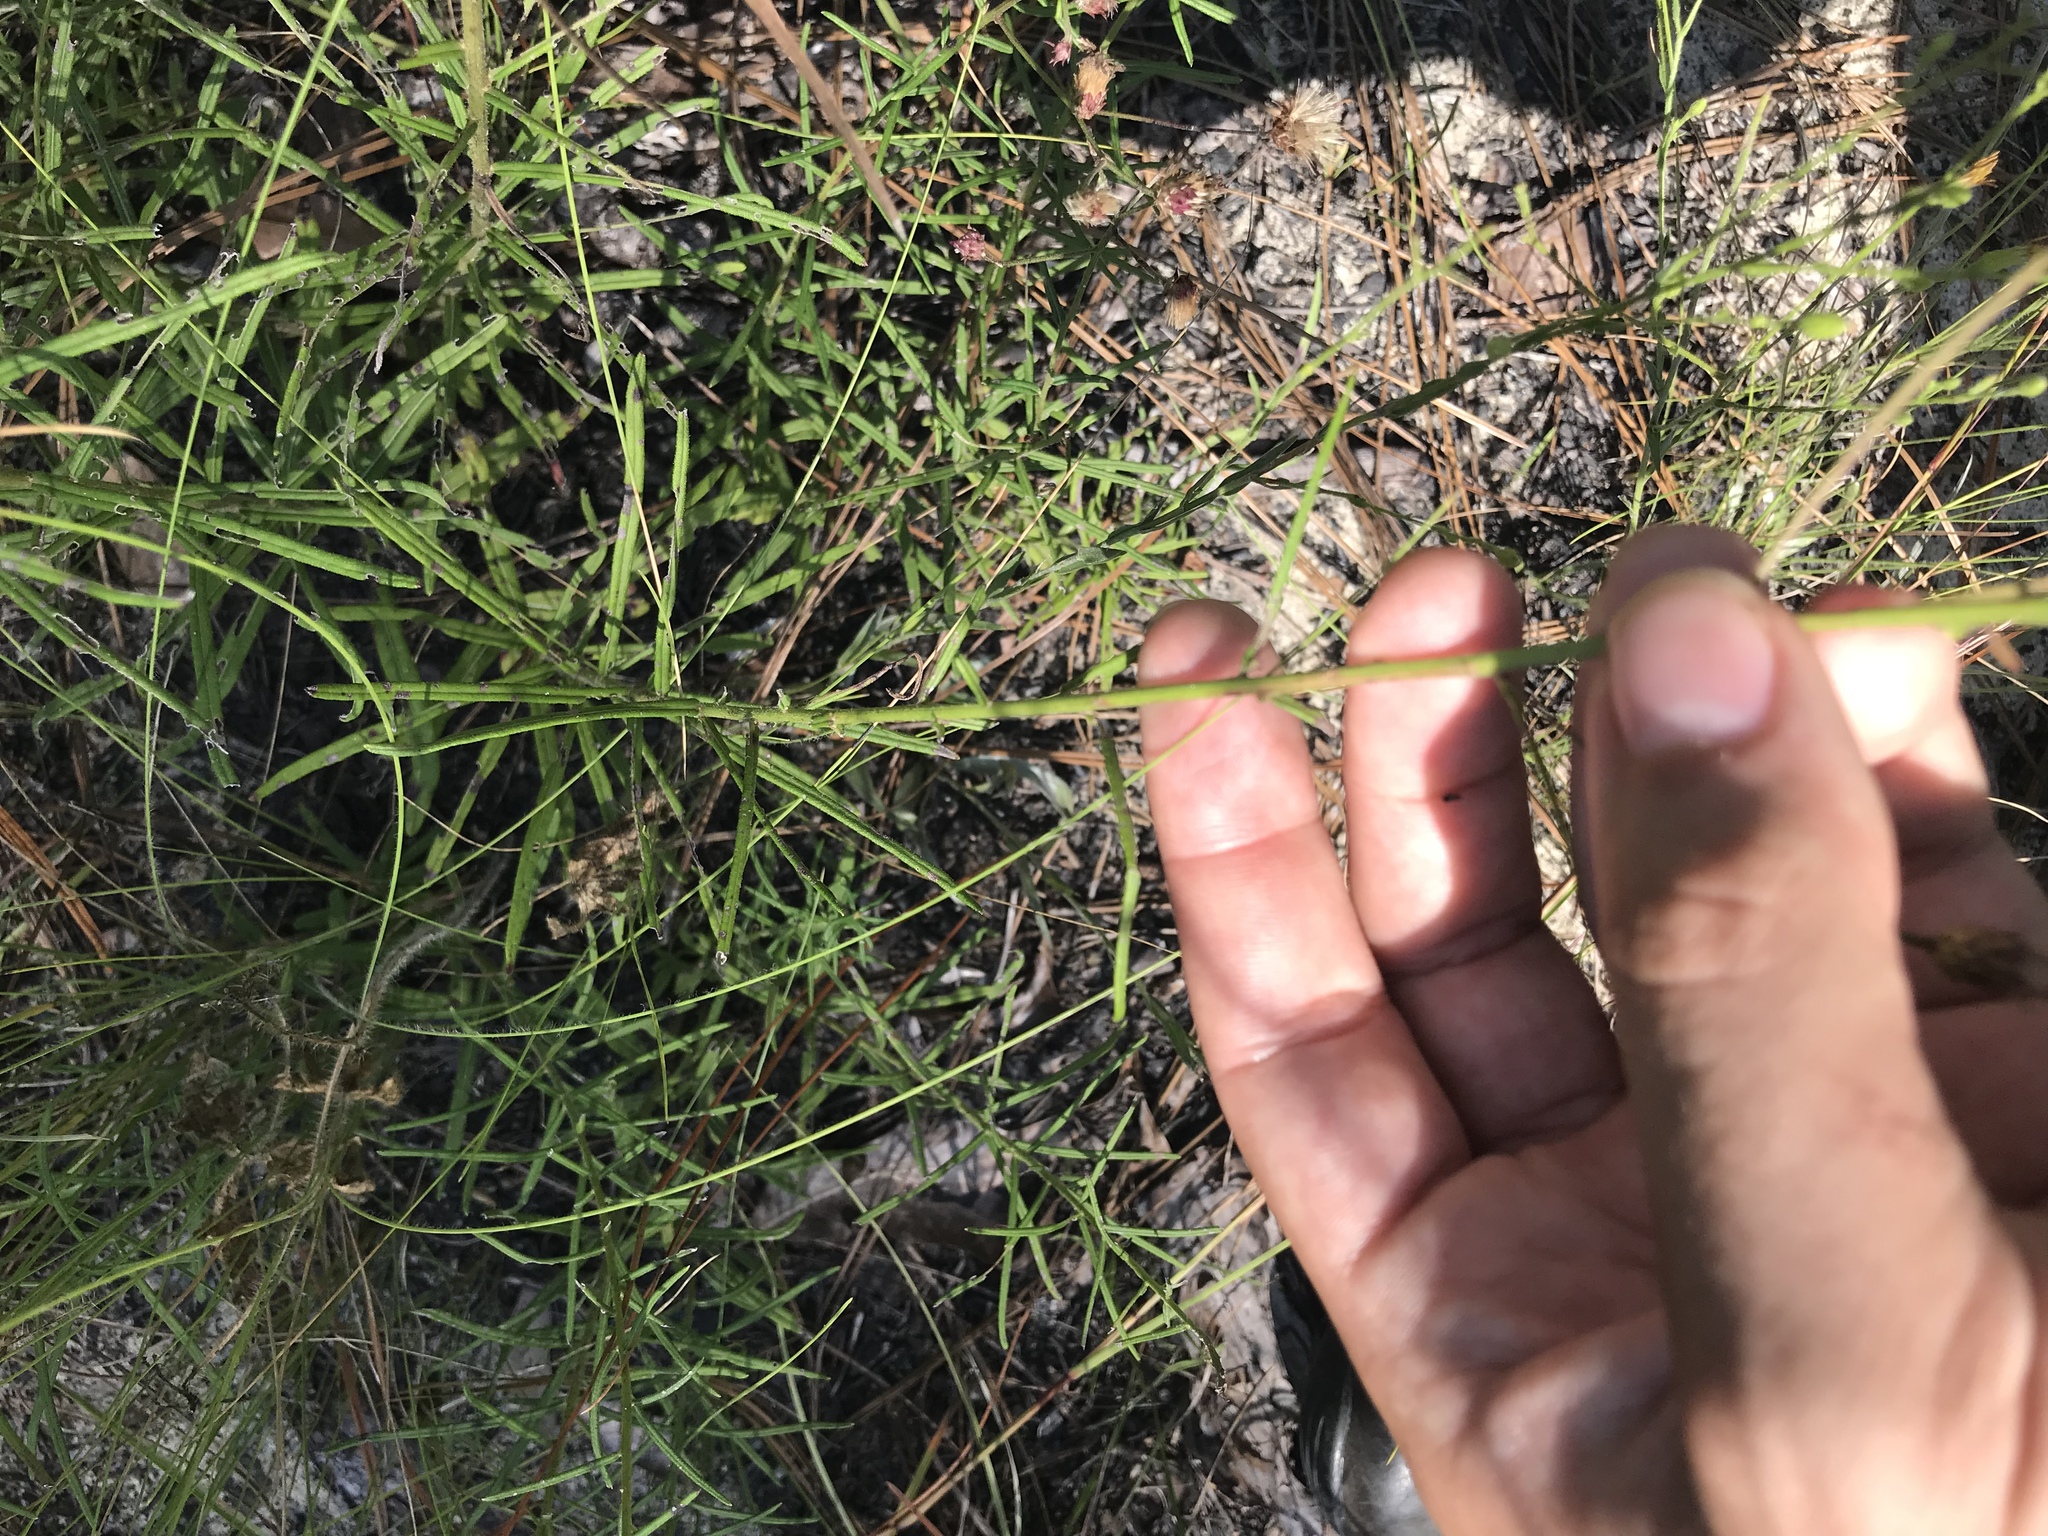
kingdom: Plantae
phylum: Tracheophyta
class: Magnoliopsida
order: Asterales
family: Asteraceae
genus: Vernonia
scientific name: Vernonia angustifolia
